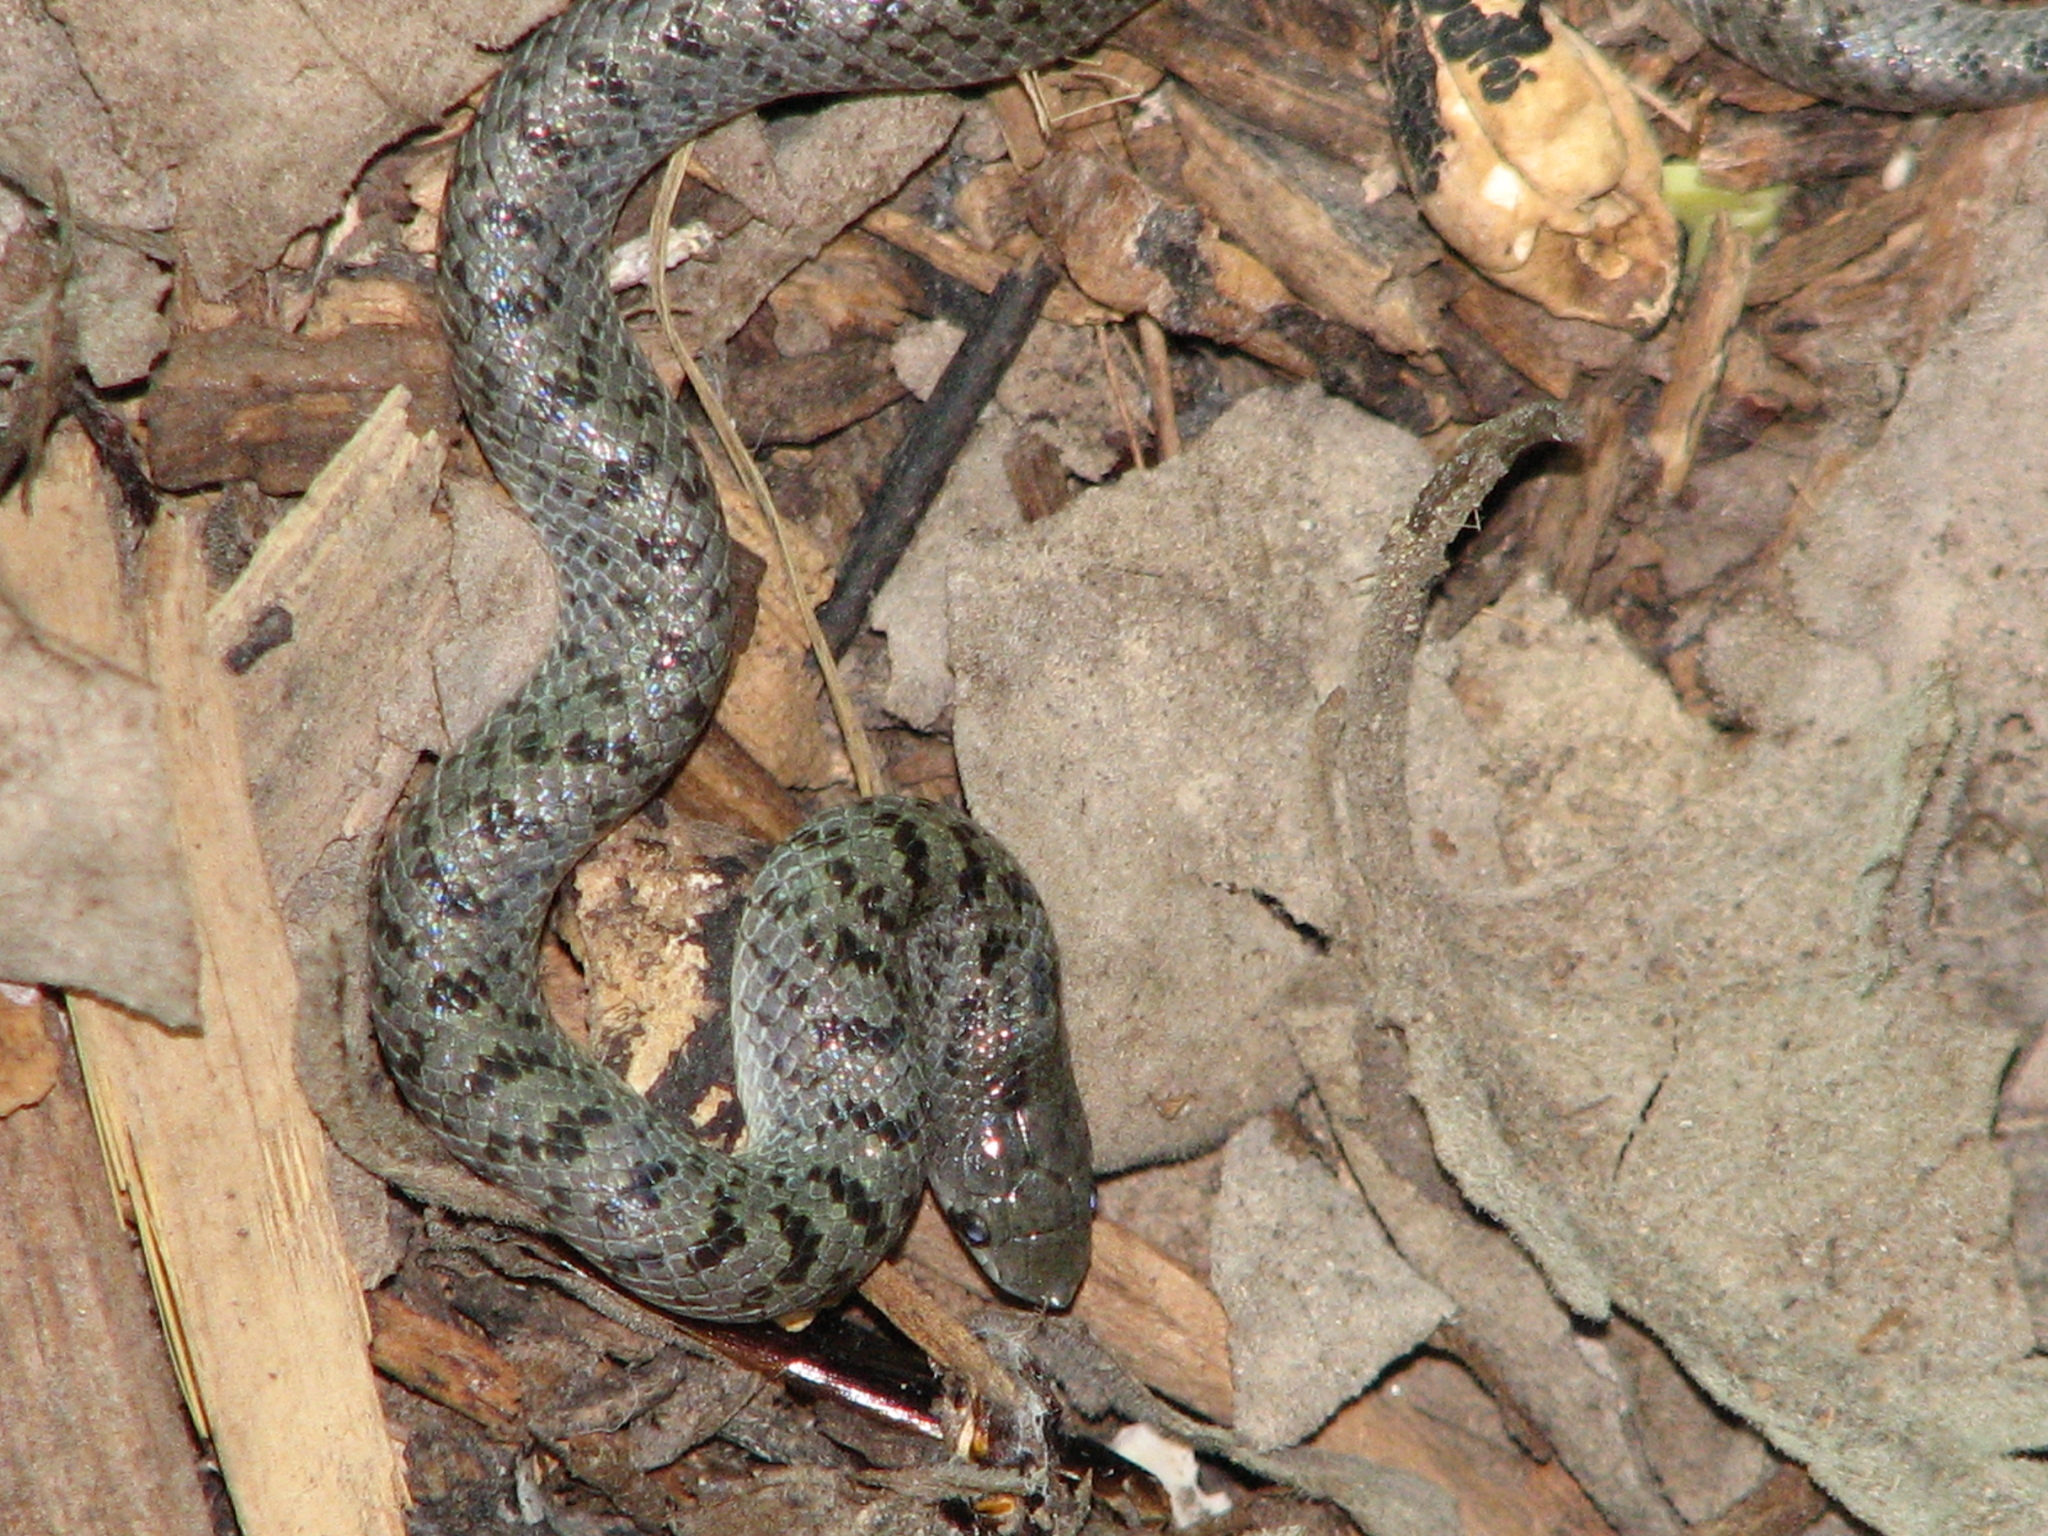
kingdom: Animalia
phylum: Chordata
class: Squamata
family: Colubridae
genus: Ficimia
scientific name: Ficimia streckeri
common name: Mexican hooknose snake
